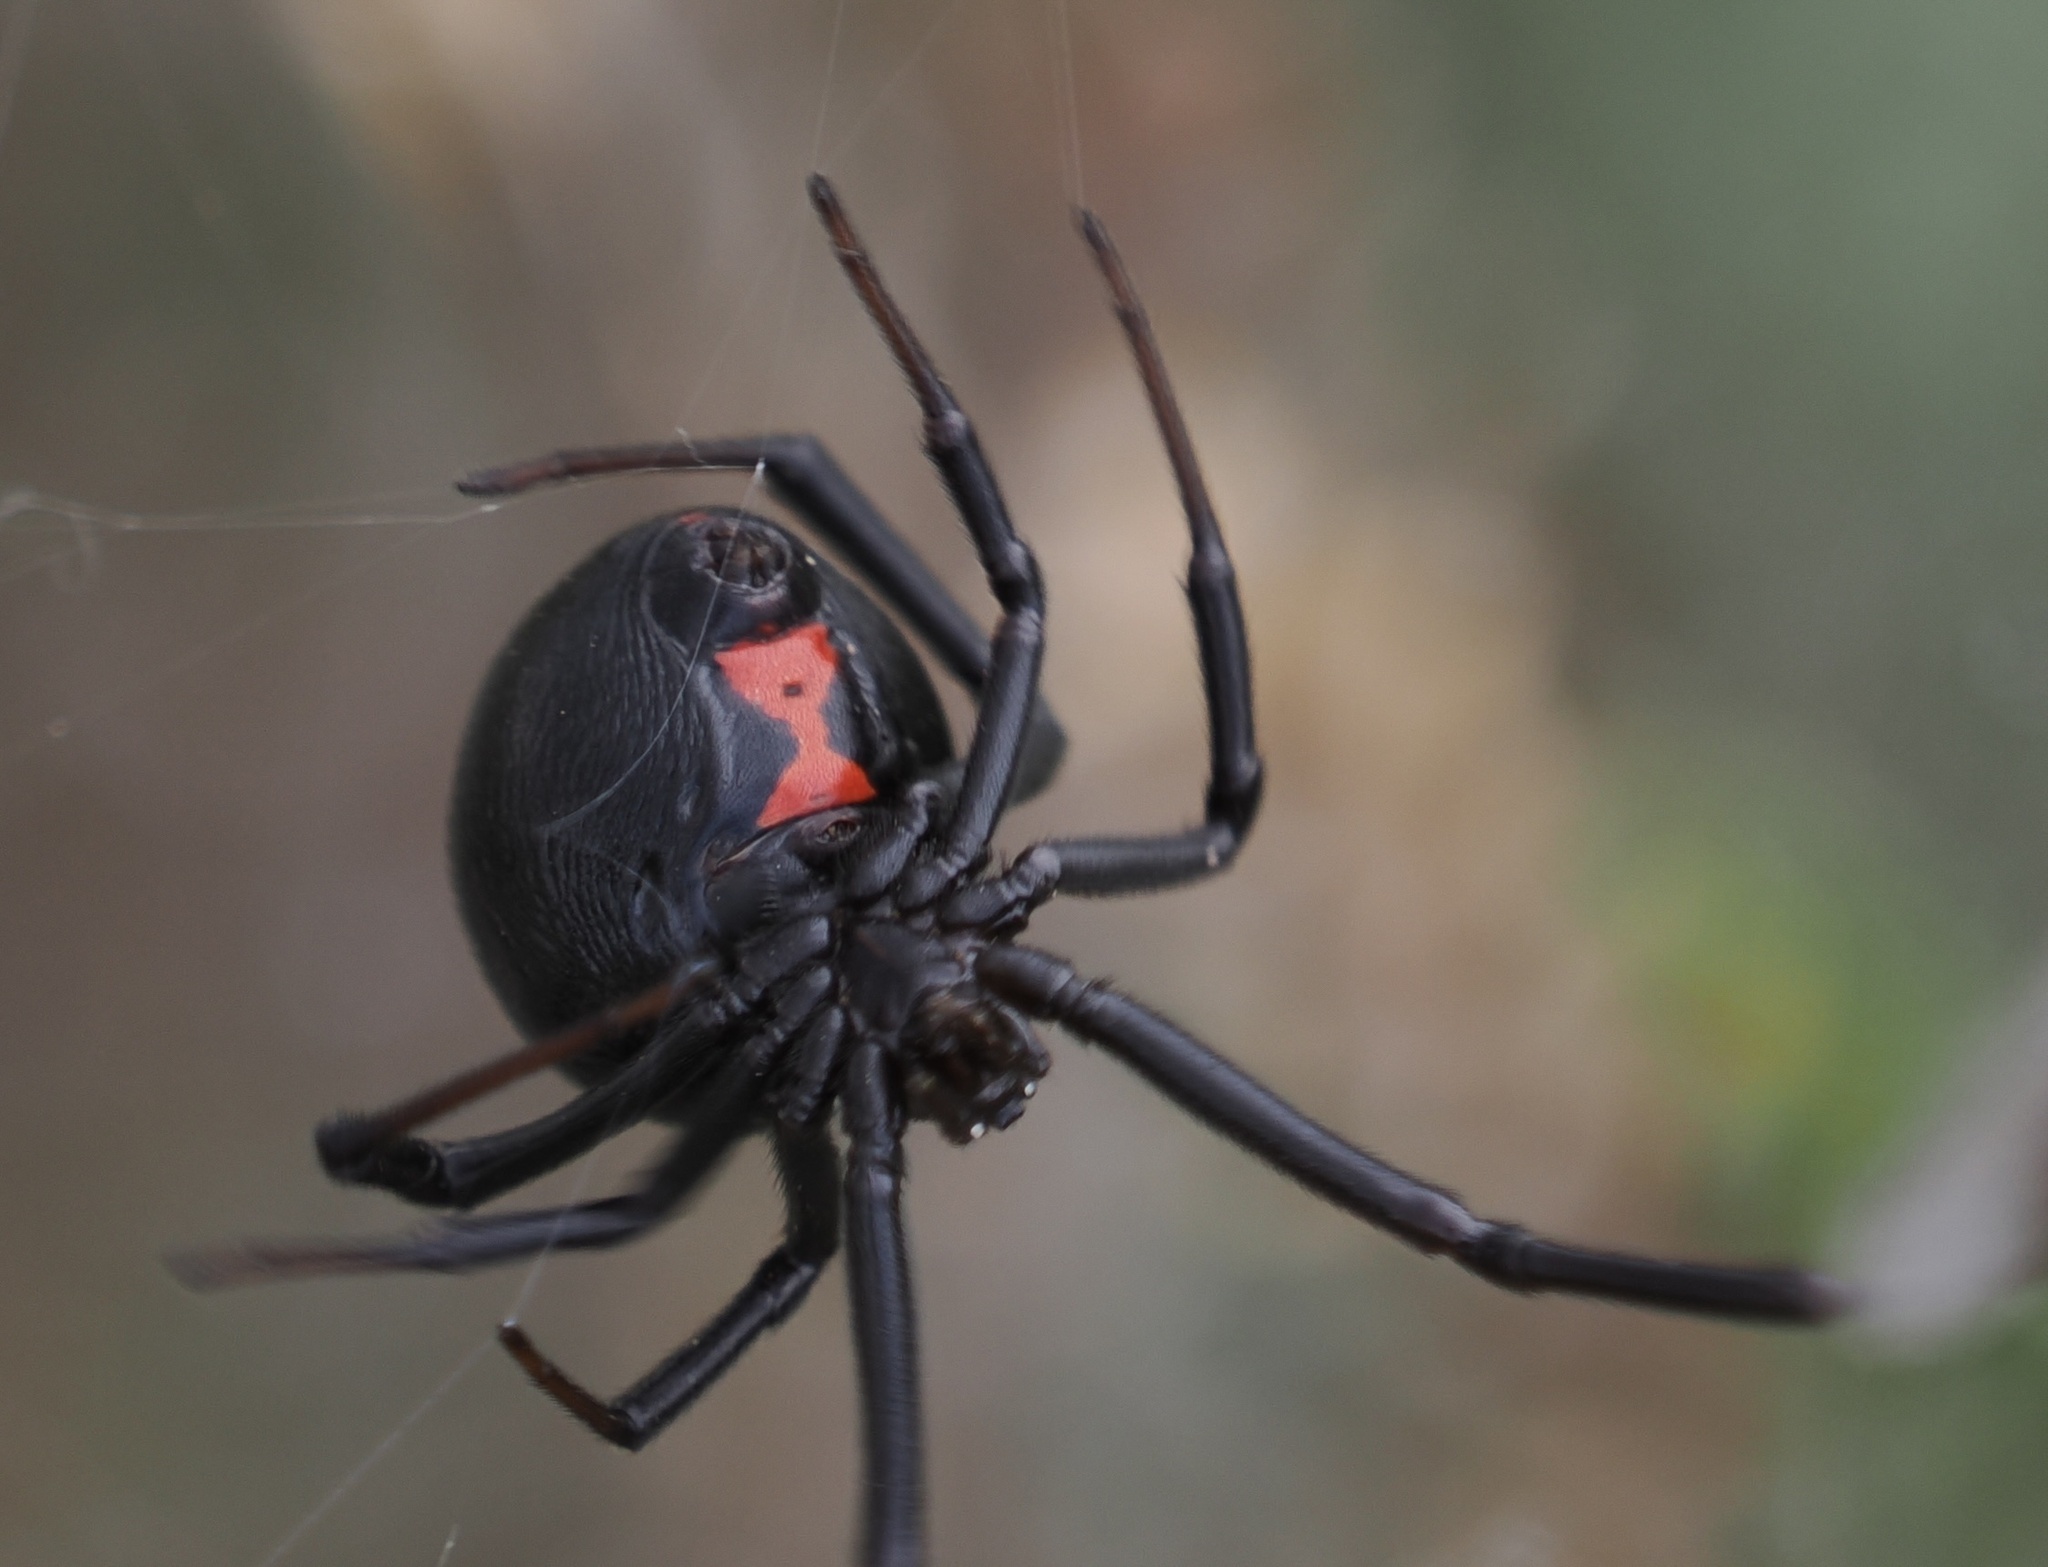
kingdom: Animalia
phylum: Arthropoda
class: Arachnida
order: Araneae
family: Theridiidae
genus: Latrodectus
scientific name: Latrodectus hesperus
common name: Western black widow
